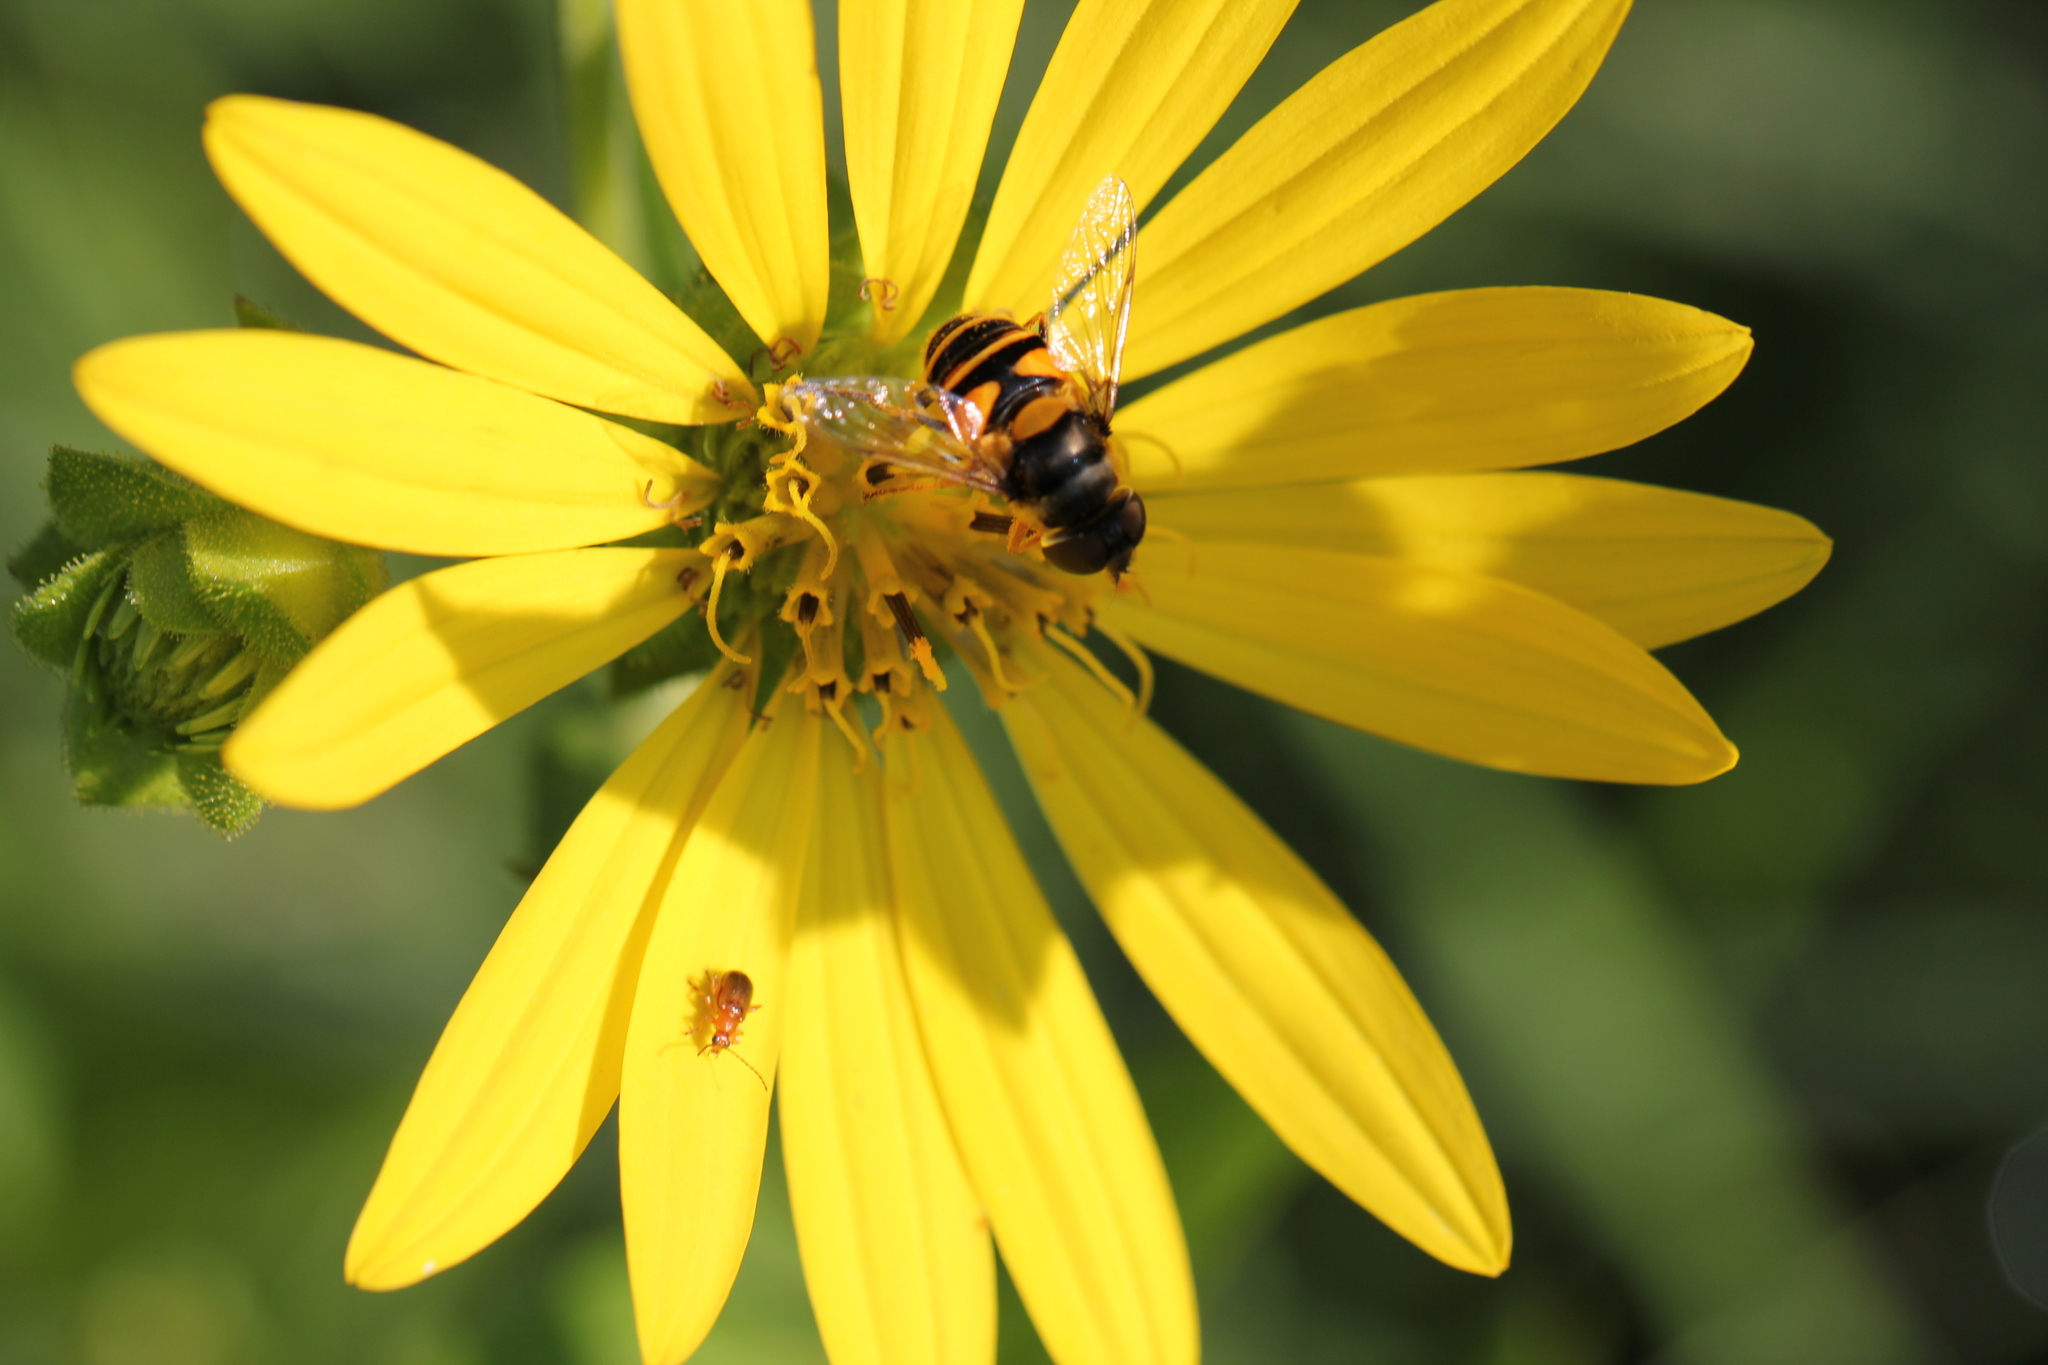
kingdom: Animalia
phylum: Arthropoda
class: Insecta
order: Diptera
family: Syrphidae
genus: Eristalis
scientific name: Eristalis transversa
